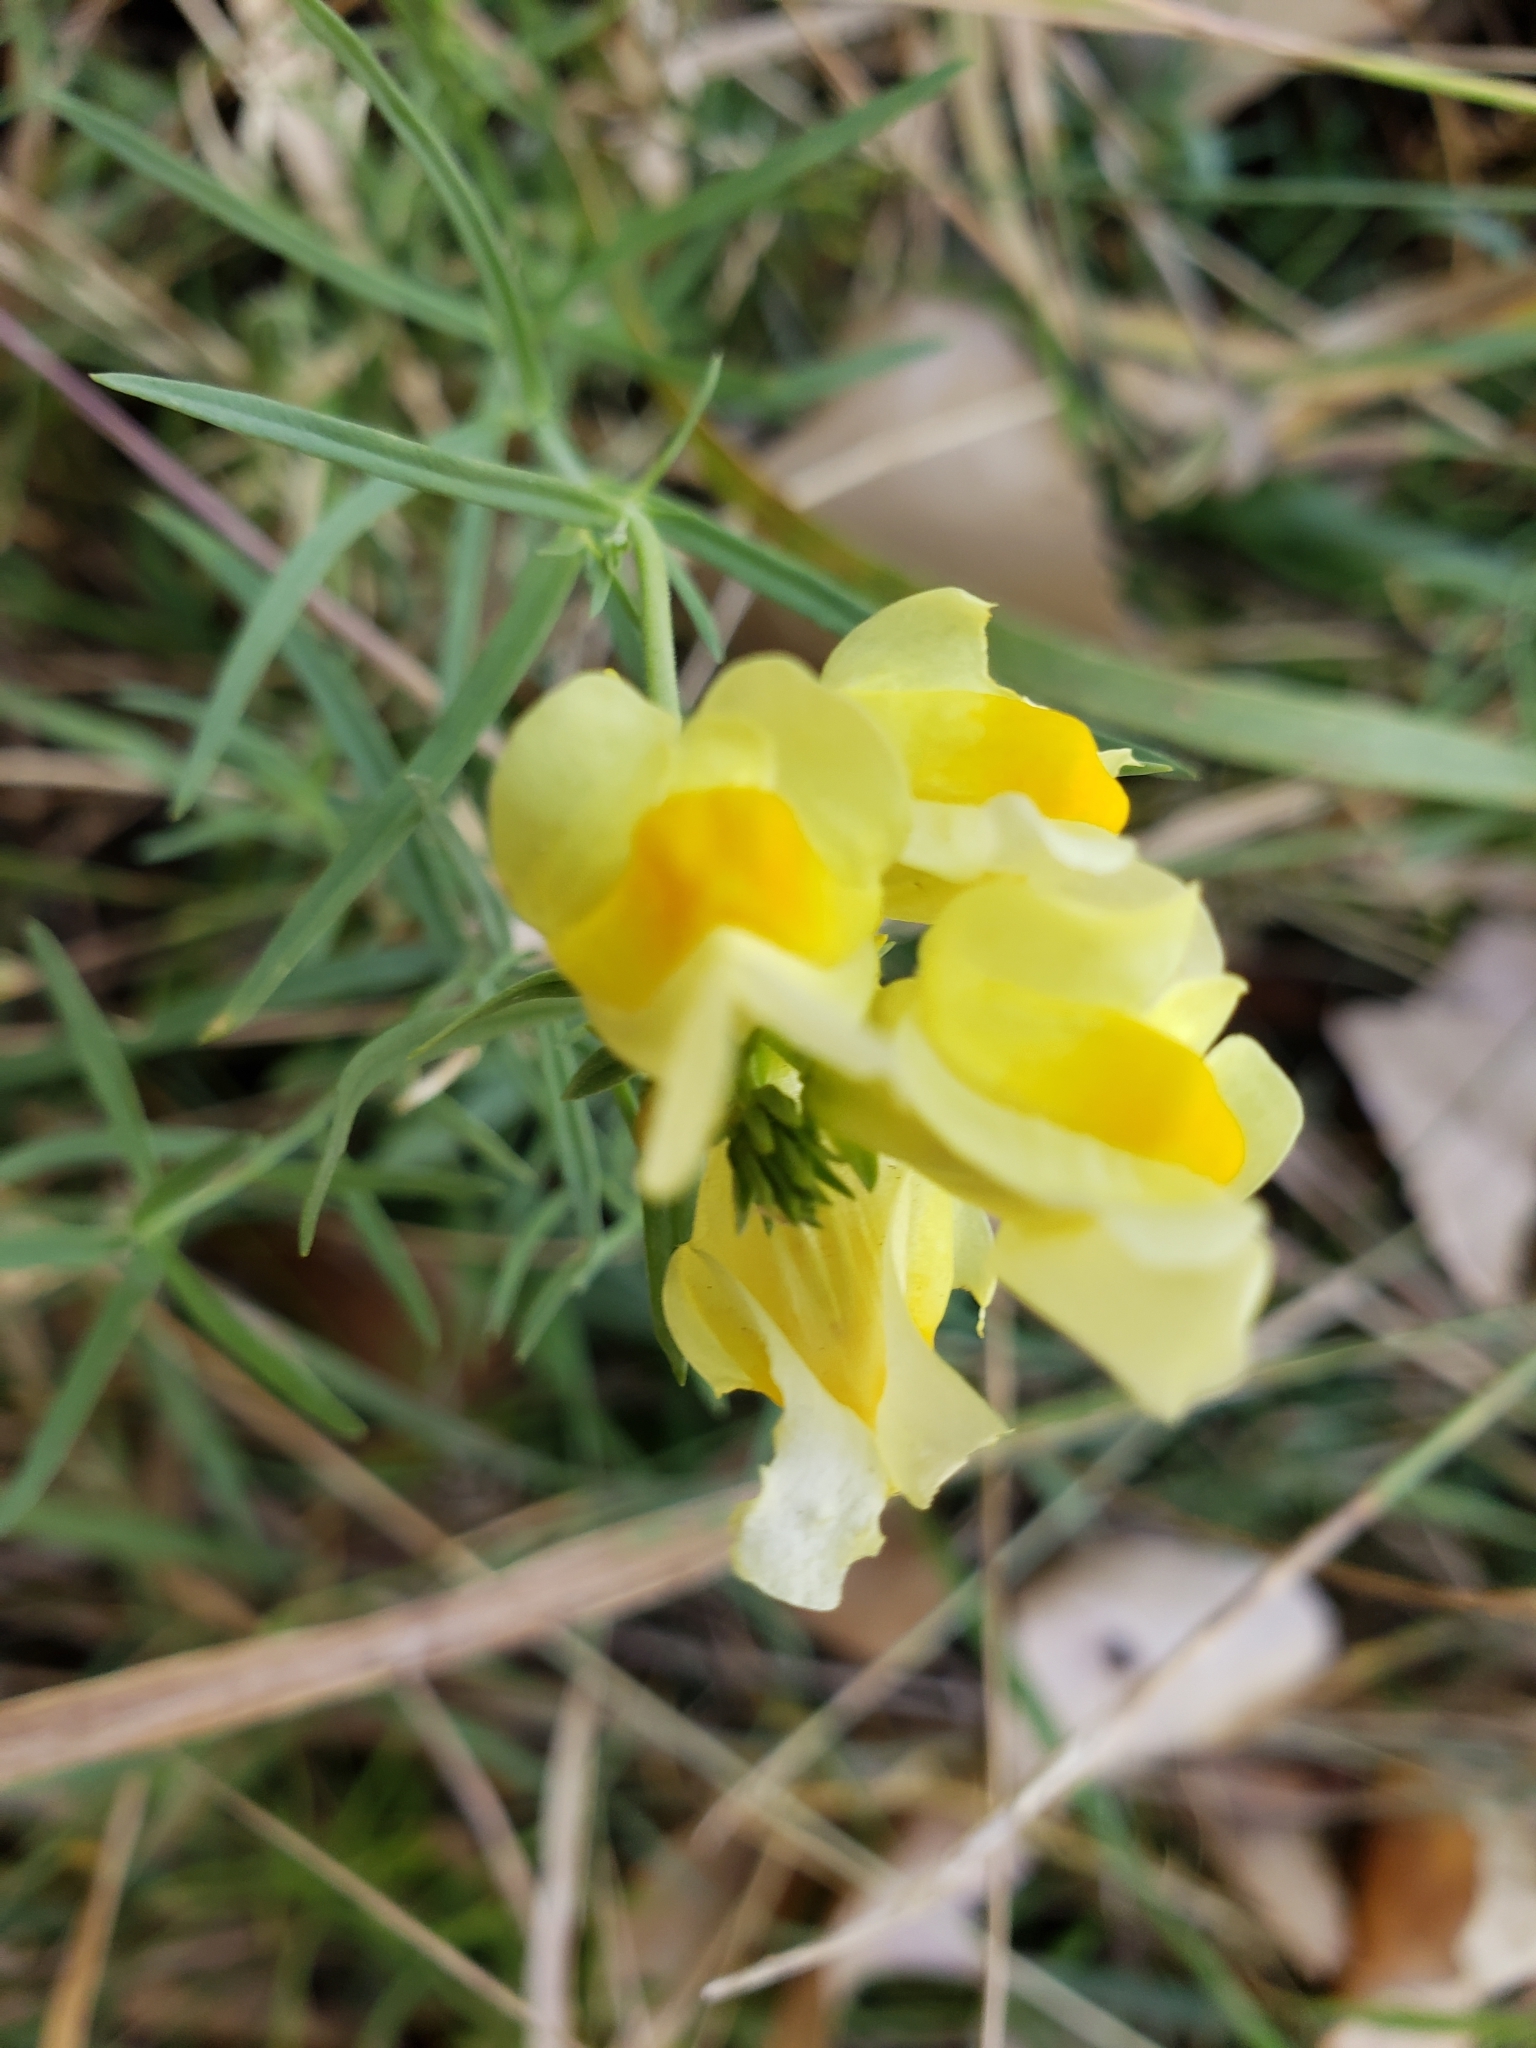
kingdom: Plantae
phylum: Tracheophyta
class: Magnoliopsida
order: Lamiales
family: Plantaginaceae
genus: Linaria
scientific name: Linaria vulgaris
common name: Butter and eggs
